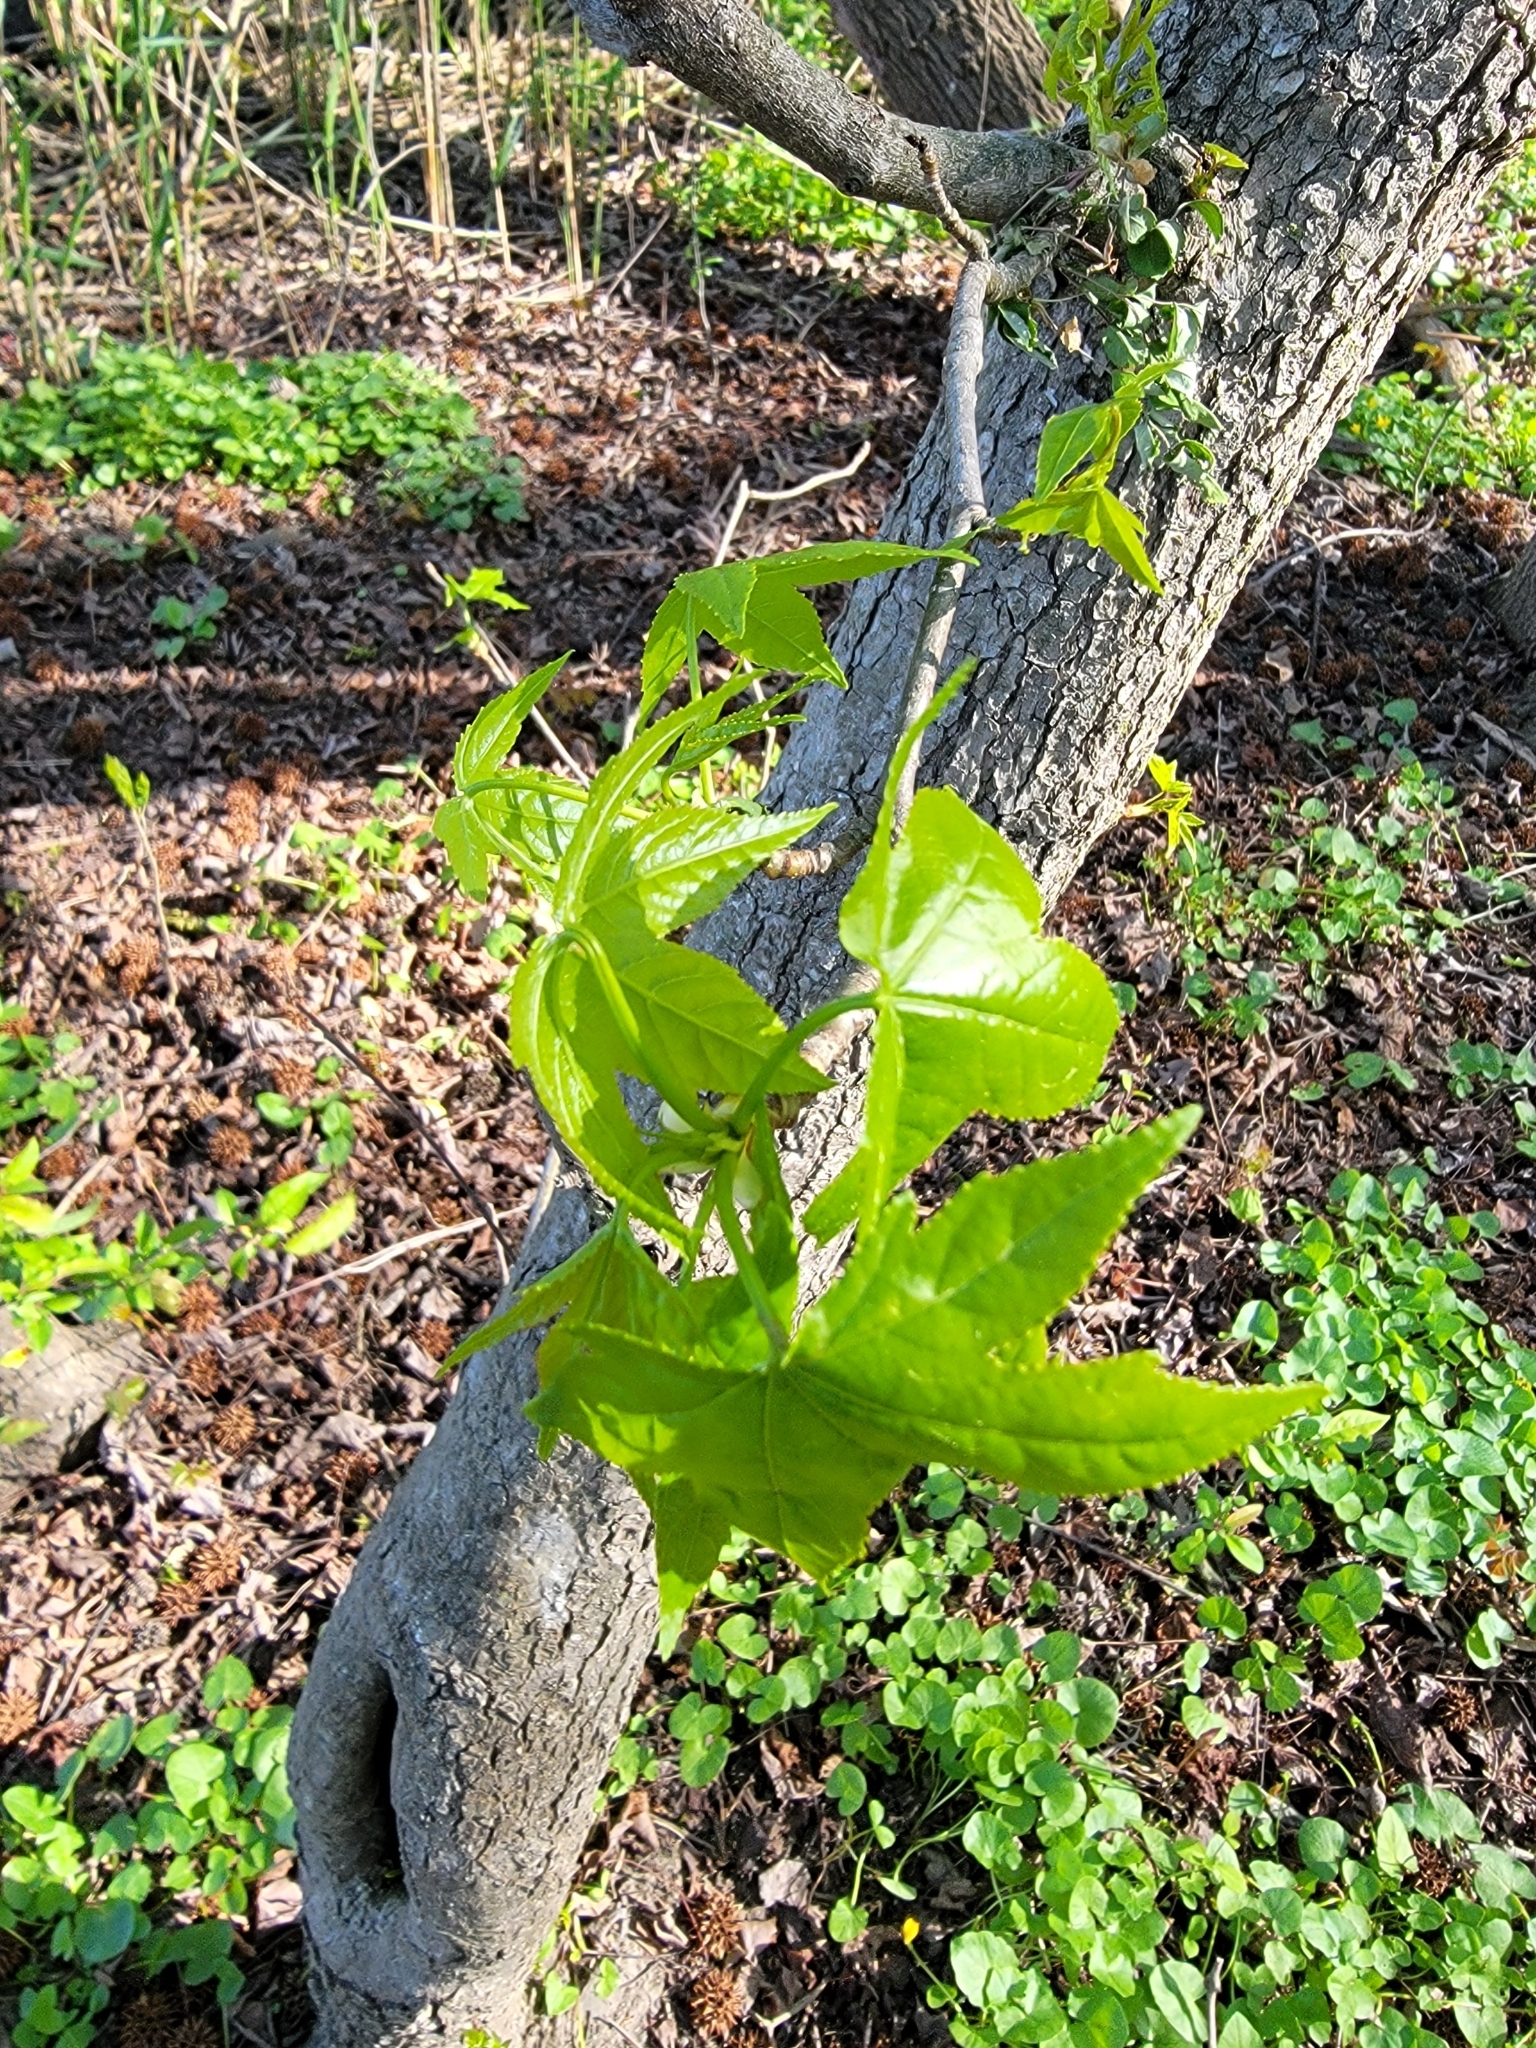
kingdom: Plantae
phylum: Tracheophyta
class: Magnoliopsida
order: Saxifragales
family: Altingiaceae
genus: Liquidambar
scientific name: Liquidambar styraciflua
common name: Sweet gum
